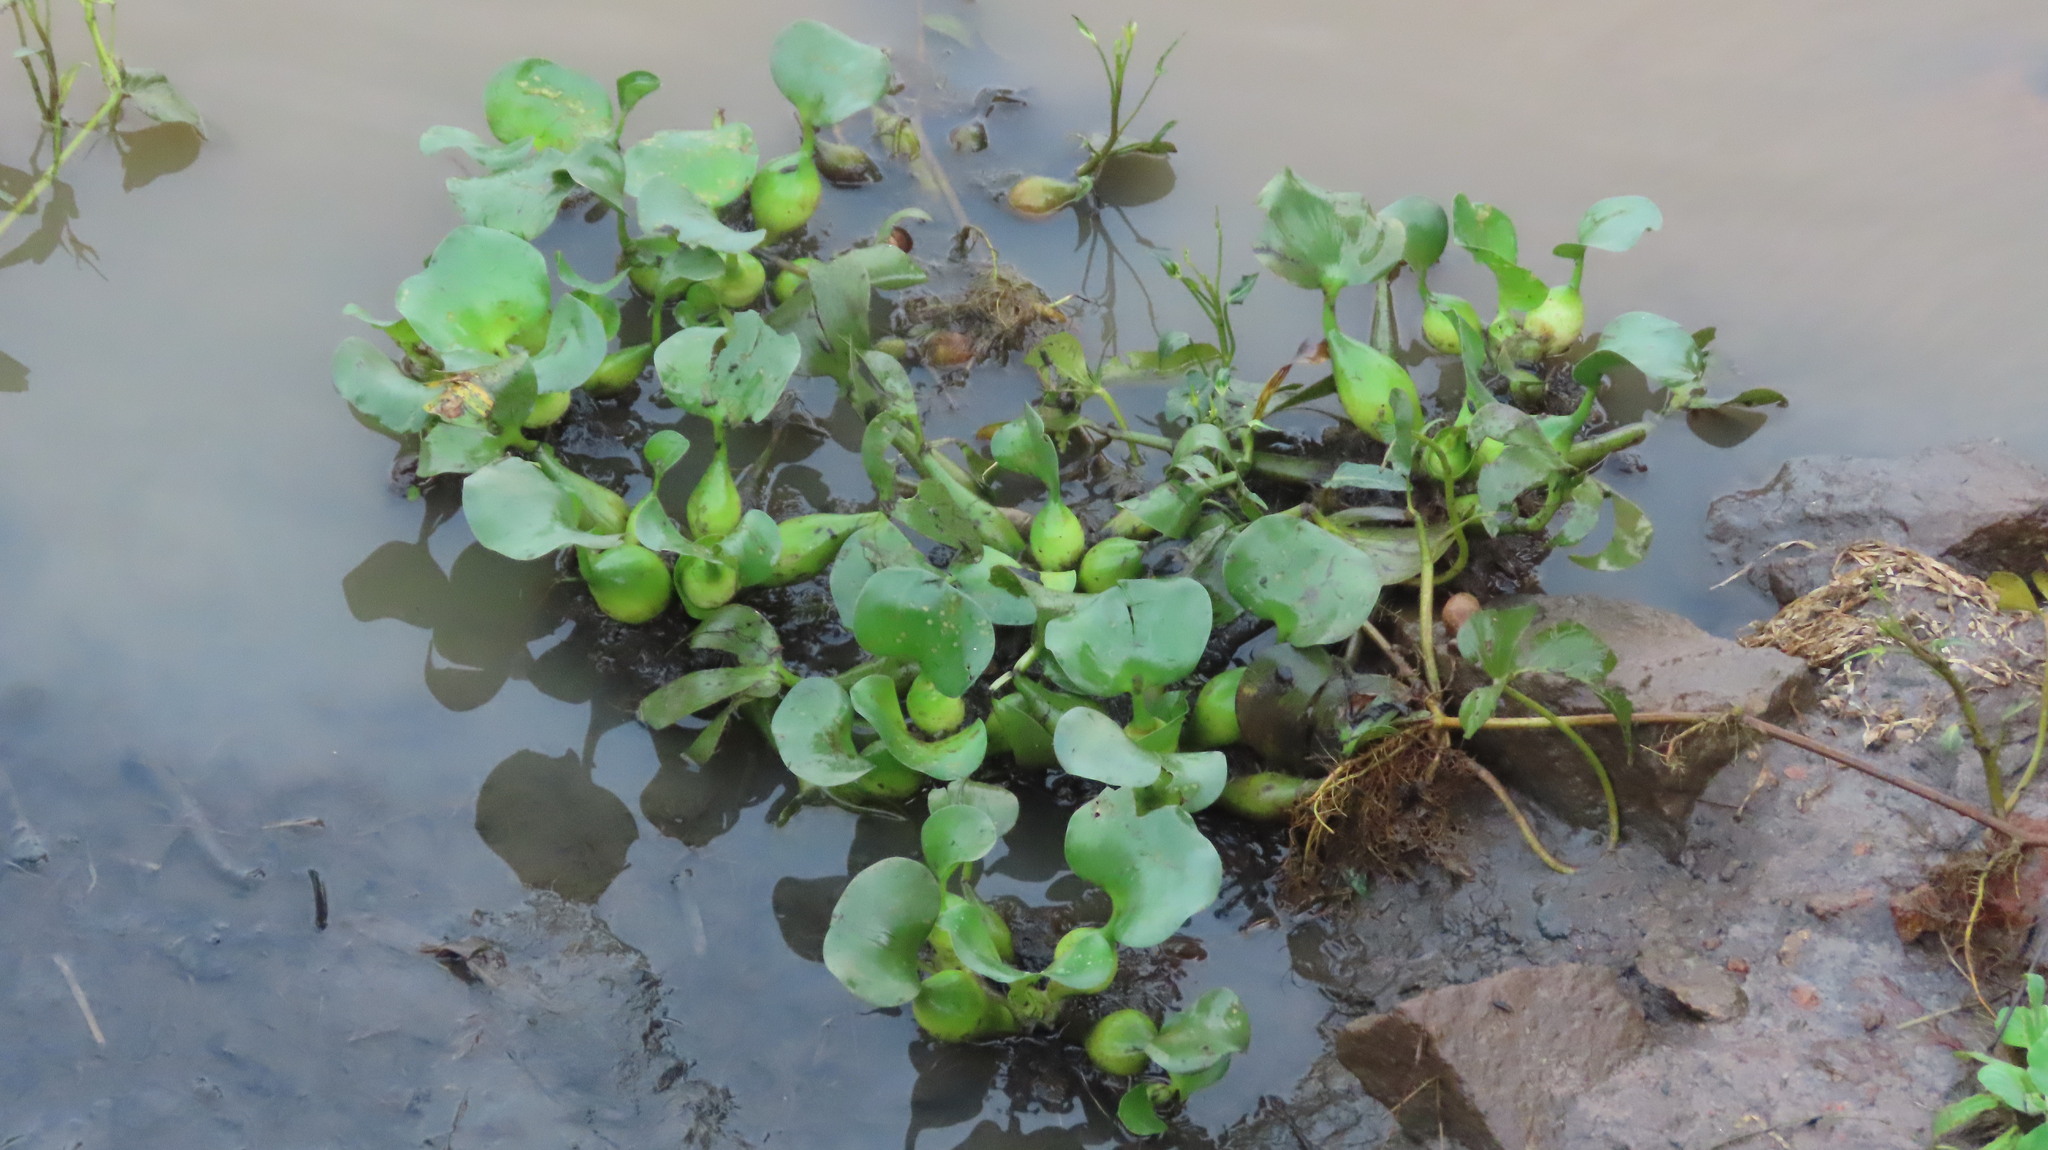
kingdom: Plantae
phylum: Tracheophyta
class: Liliopsida
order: Commelinales
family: Pontederiaceae
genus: Pontederia
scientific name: Pontederia crassipes
